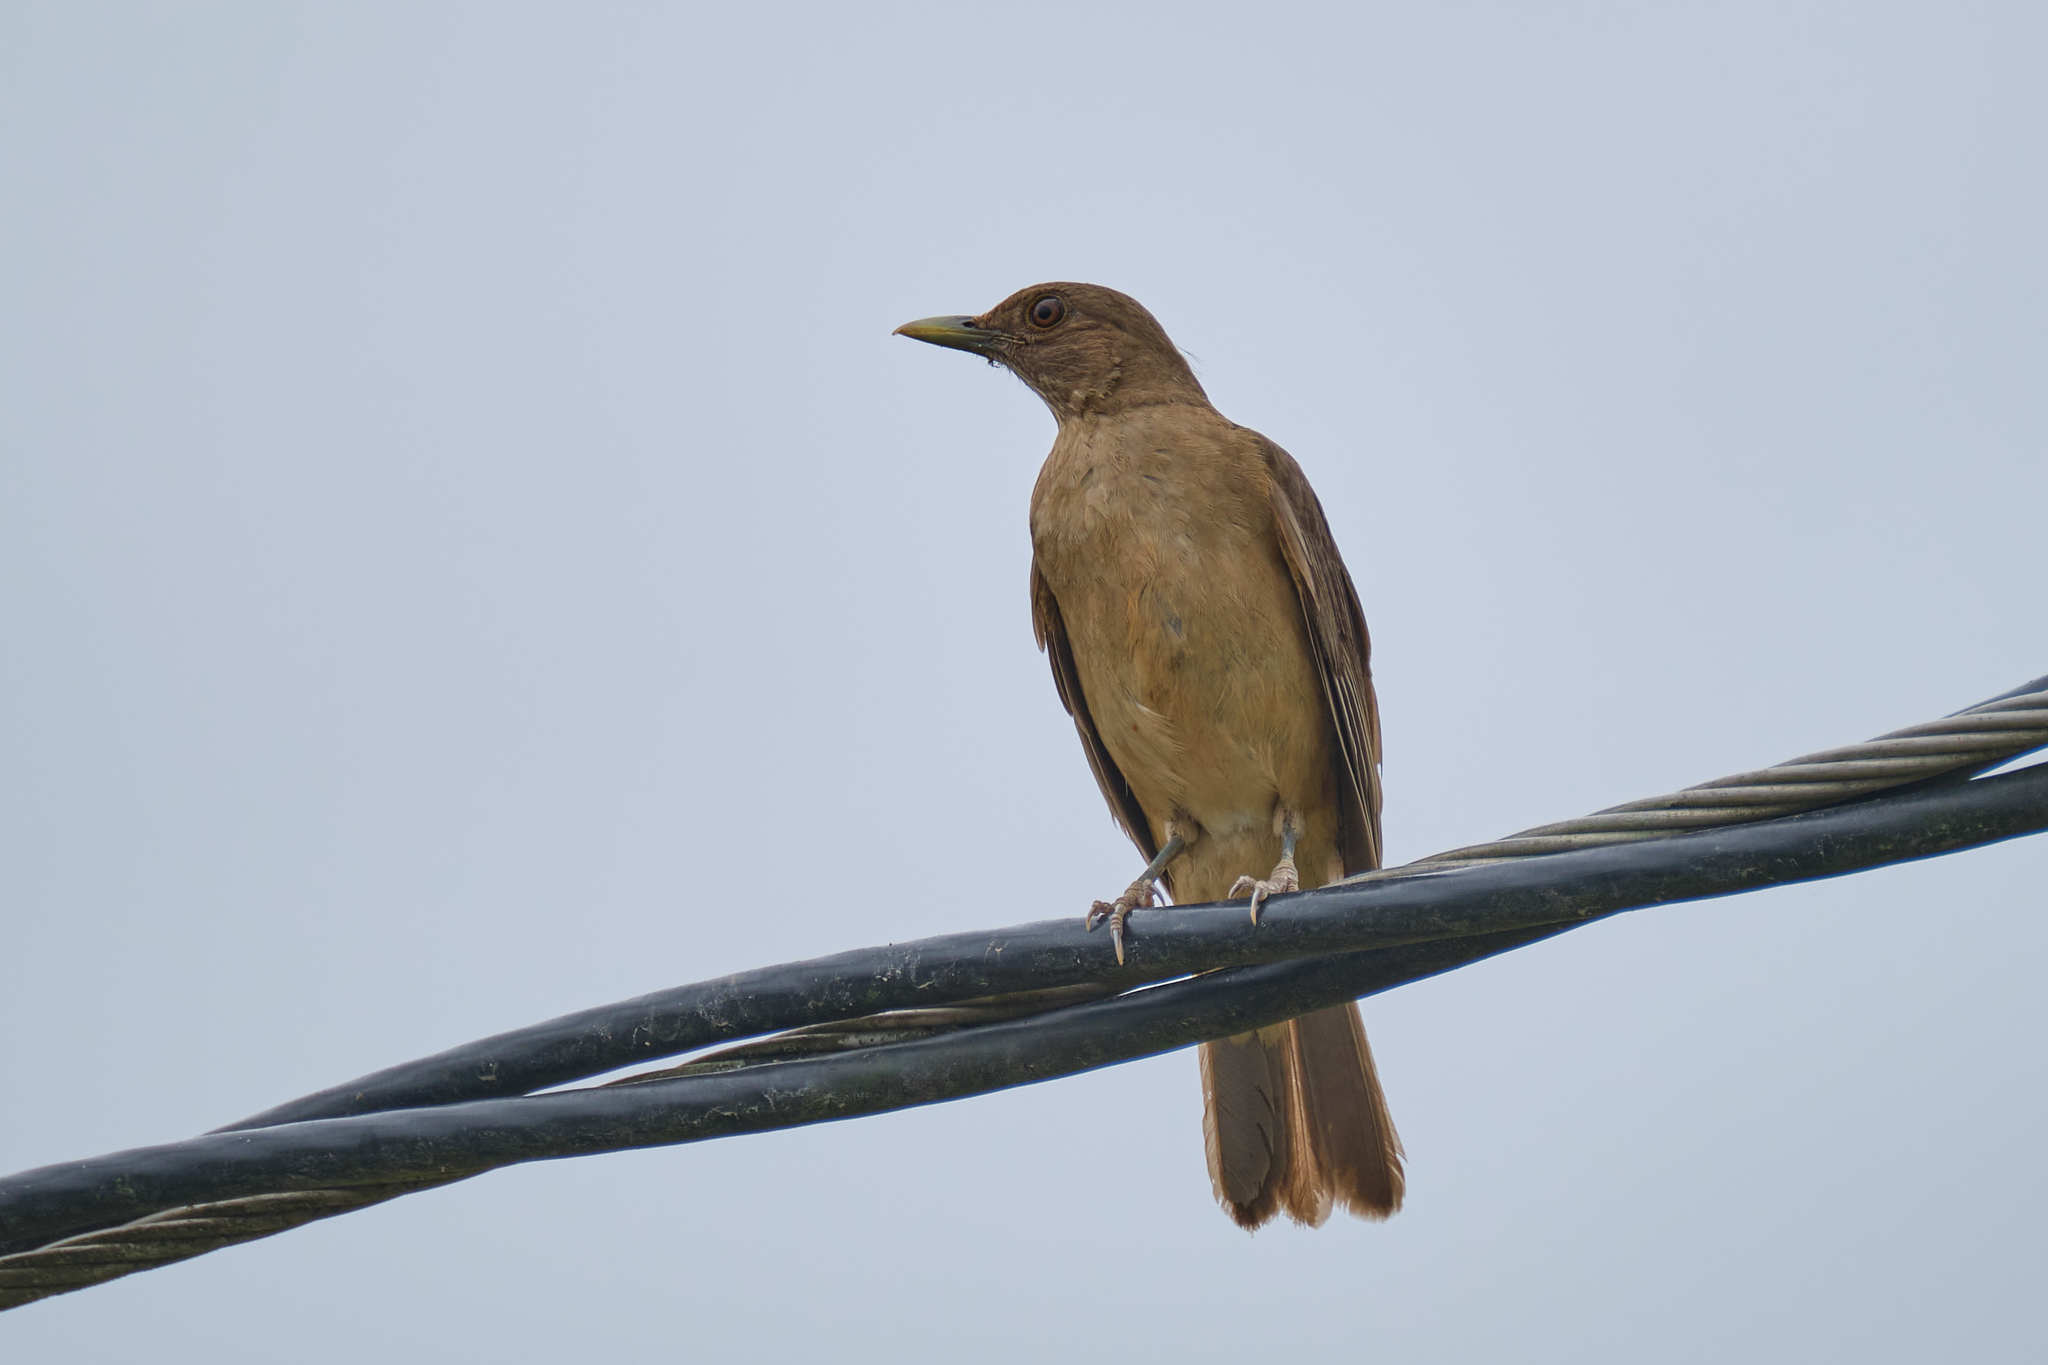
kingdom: Animalia
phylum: Chordata
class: Aves
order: Passeriformes
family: Turdidae
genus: Turdus
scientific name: Turdus grayi
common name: Clay-colored thrush
